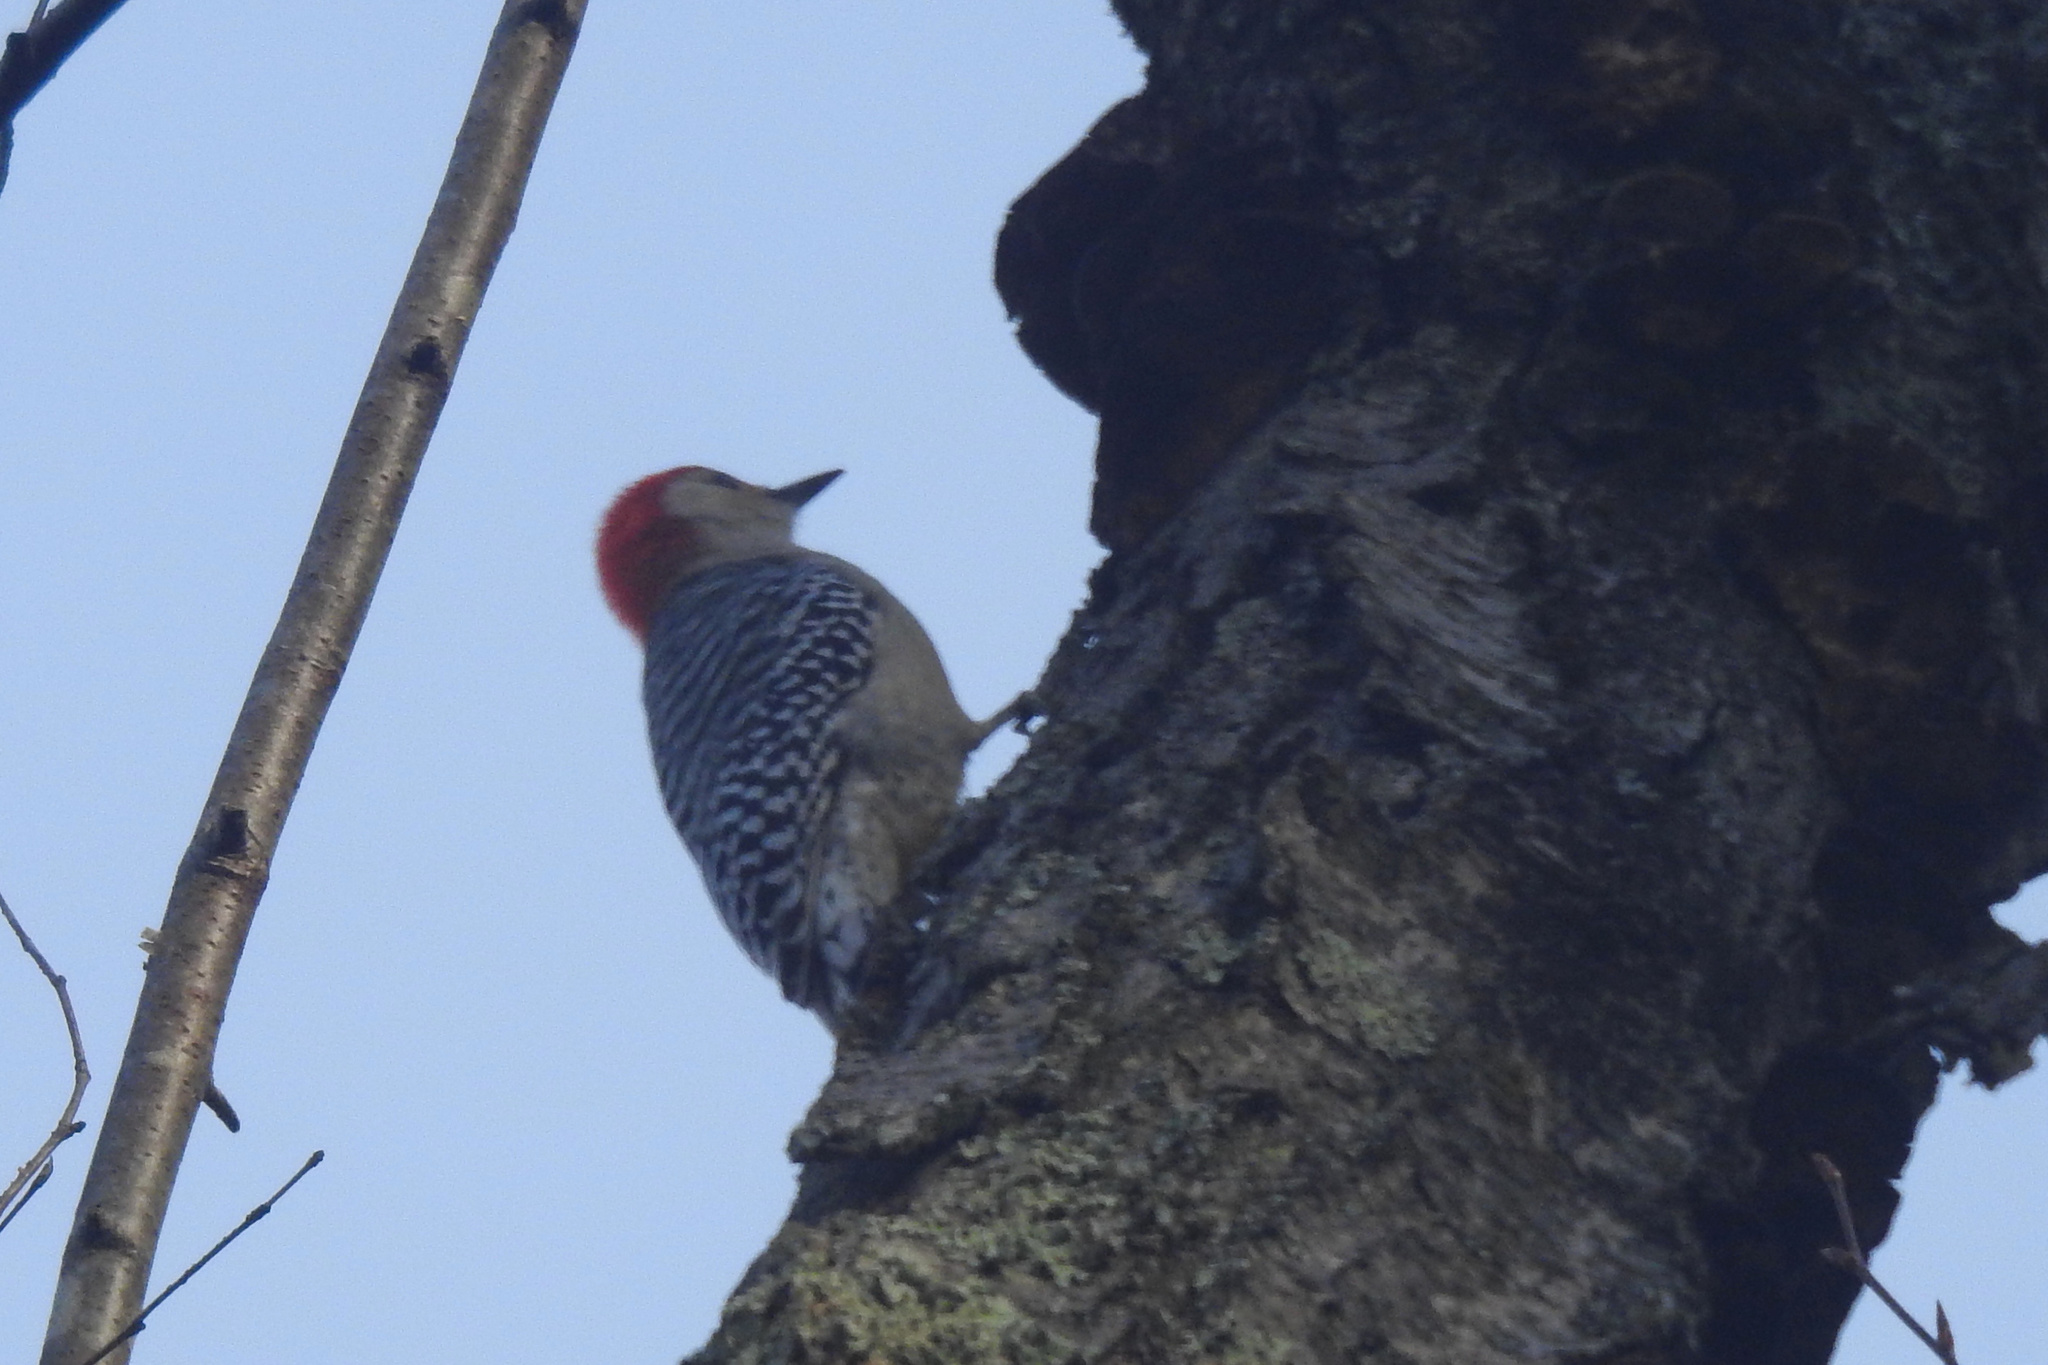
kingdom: Animalia
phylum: Chordata
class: Aves
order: Piciformes
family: Picidae
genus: Melanerpes
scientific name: Melanerpes carolinus
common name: Red-bellied woodpecker
